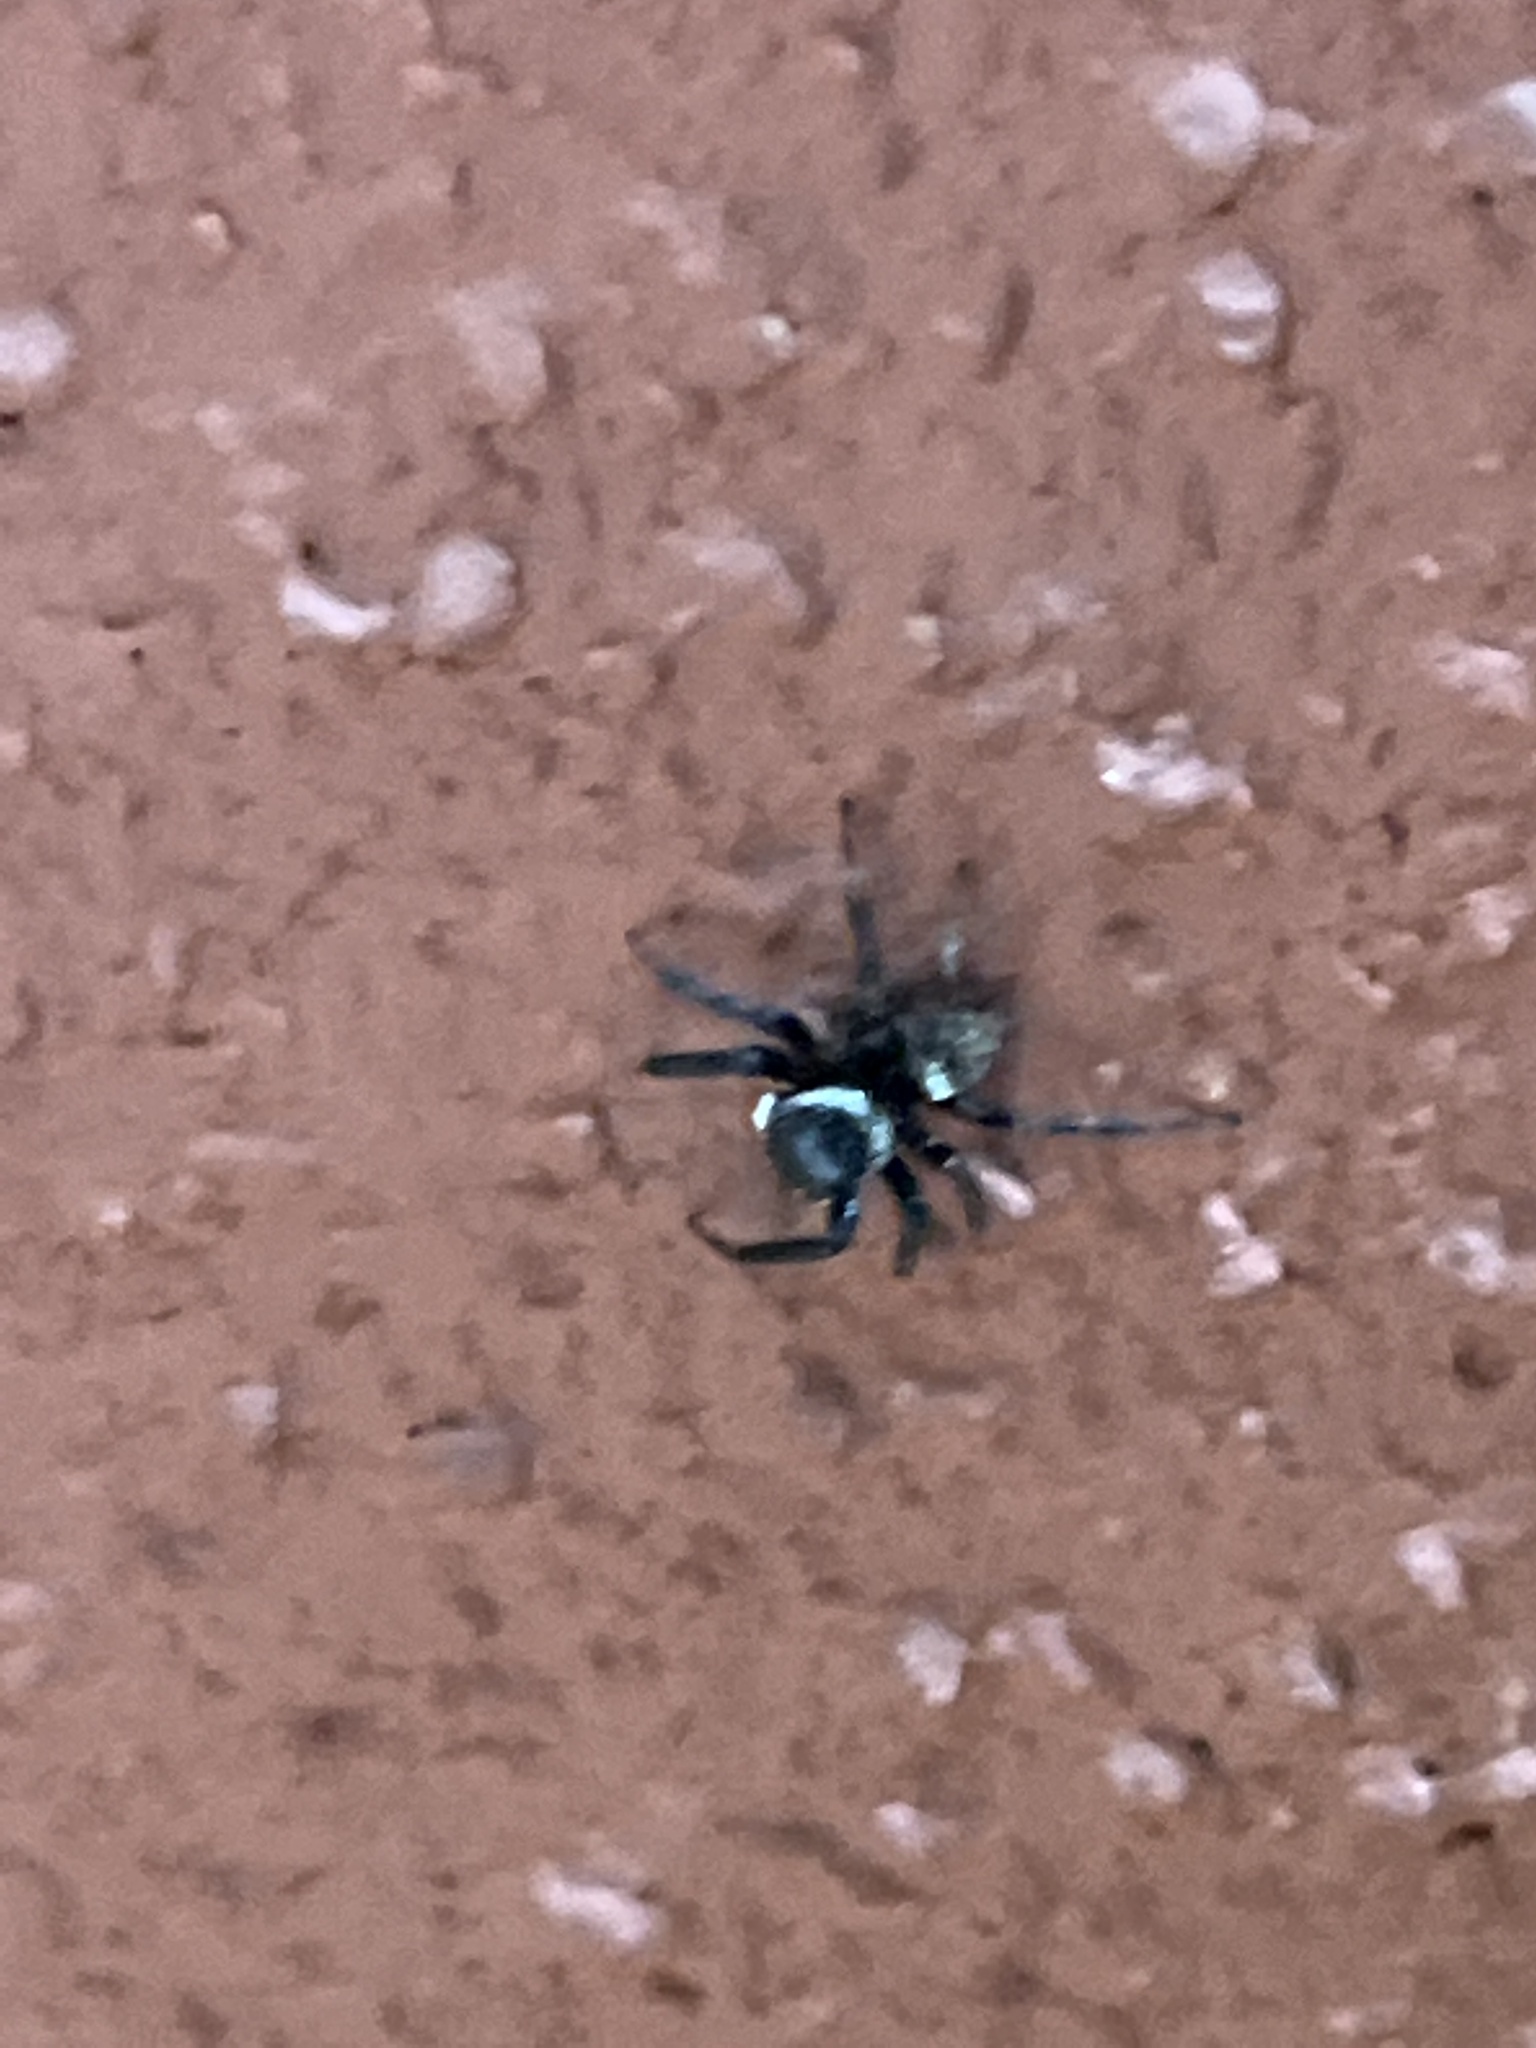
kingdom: Animalia
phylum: Arthropoda
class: Arachnida
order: Araneae
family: Salticidae
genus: Hasarius
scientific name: Hasarius adansoni
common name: Jumping spider
